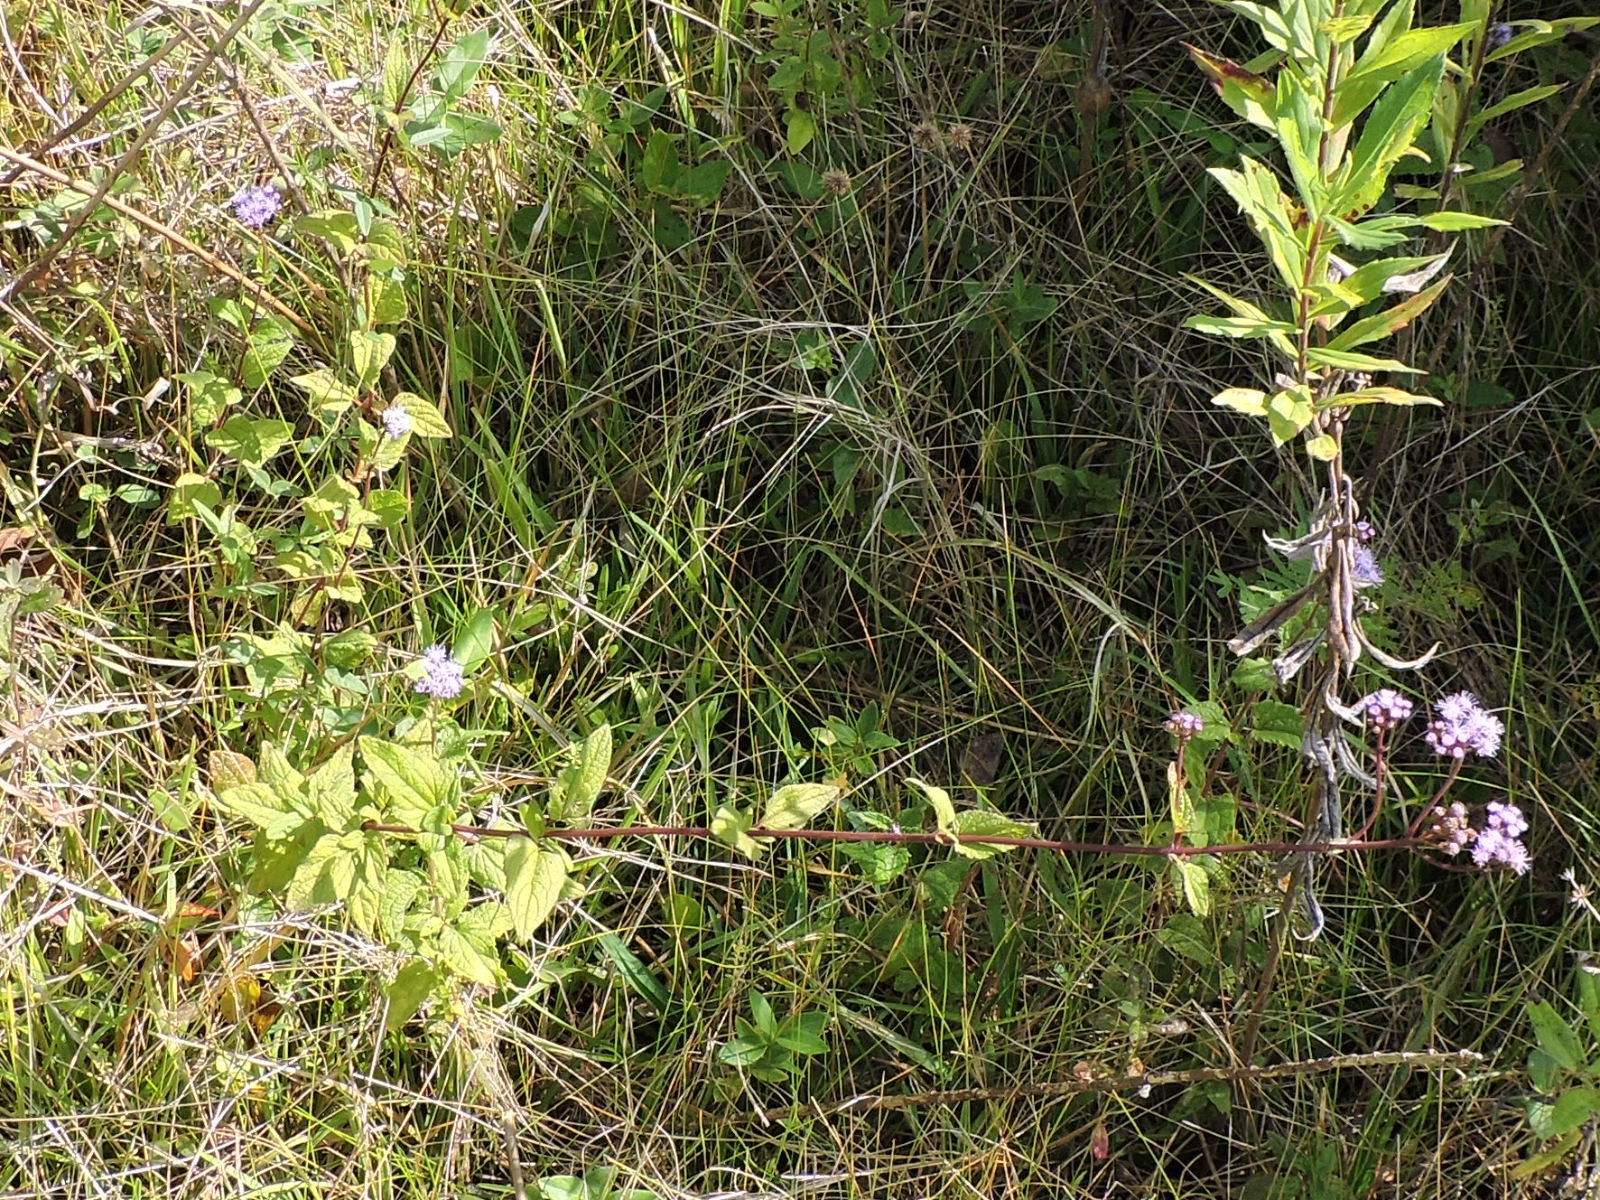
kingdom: Plantae
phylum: Tracheophyta
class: Magnoliopsida
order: Asterales
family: Asteraceae
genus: Conoclinium
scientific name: Conoclinium coelestinum
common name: Blue mistflower
